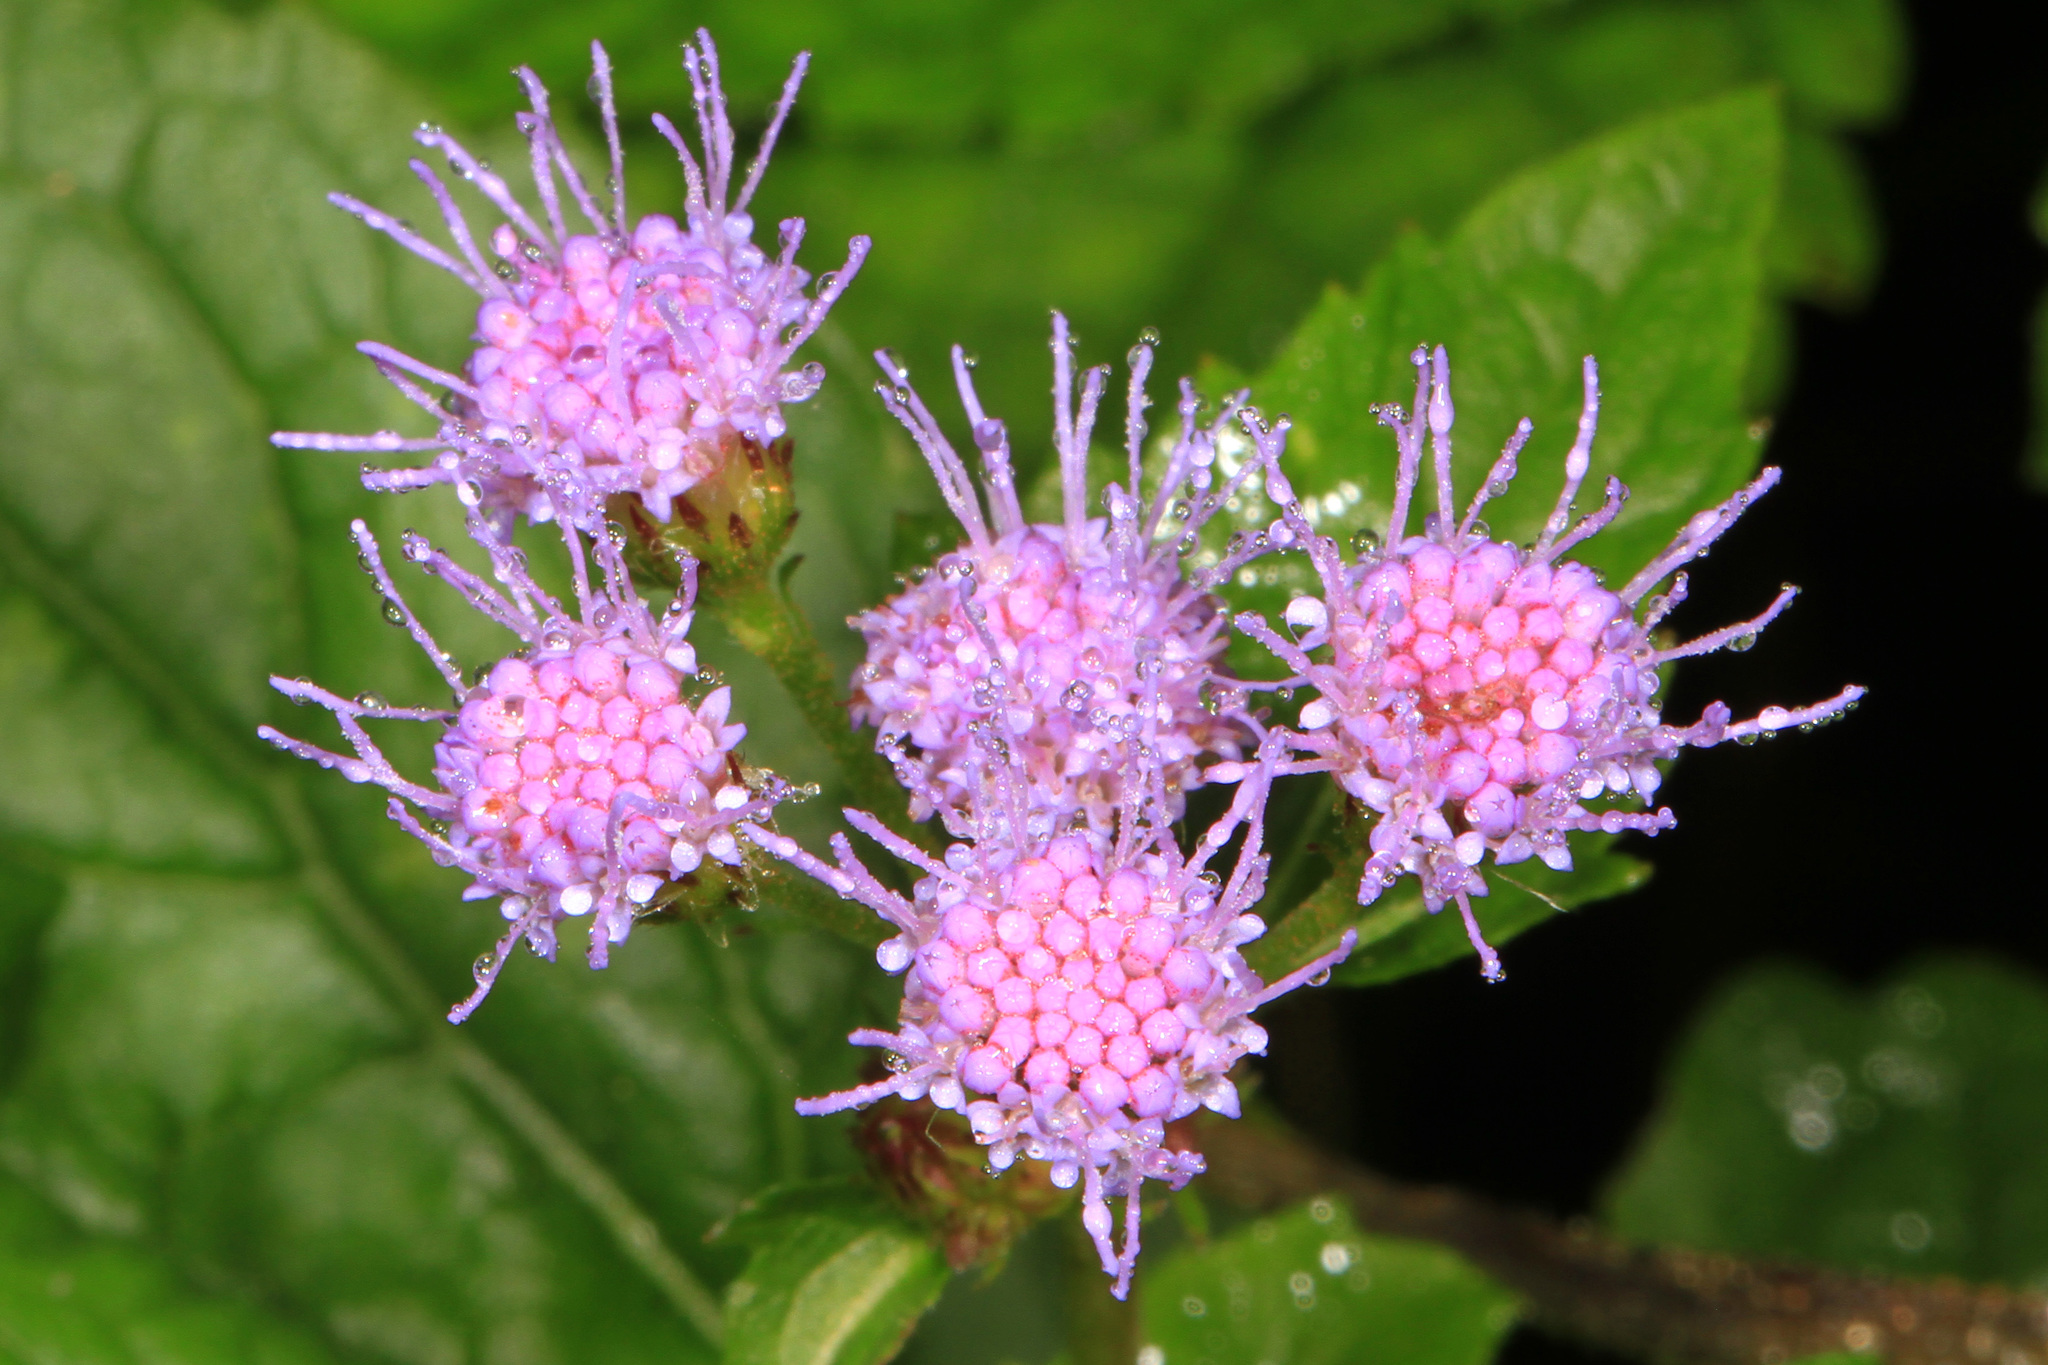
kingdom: Plantae
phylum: Tracheophyta
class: Magnoliopsida
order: Asterales
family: Asteraceae
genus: Conoclinium
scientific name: Conoclinium coelestinum
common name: Blue mistflower
